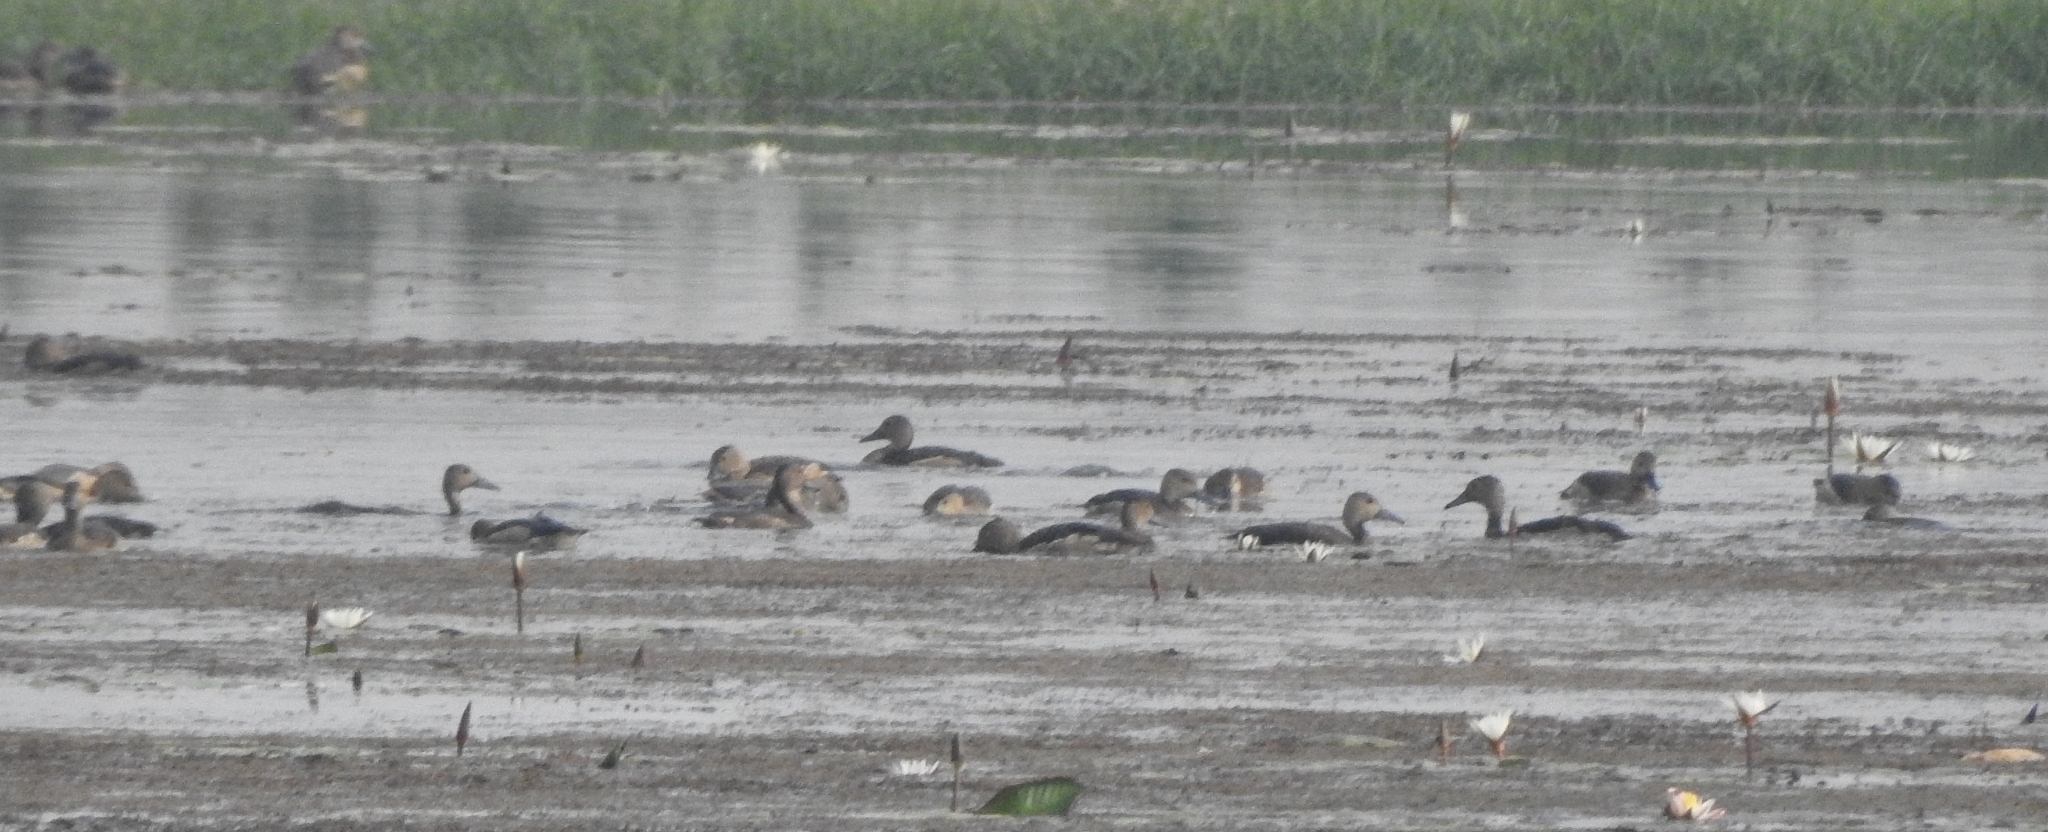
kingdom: Animalia
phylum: Chordata
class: Aves
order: Anseriformes
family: Anatidae
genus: Dendrocygna
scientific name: Dendrocygna javanica
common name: Lesser whistling-duck
